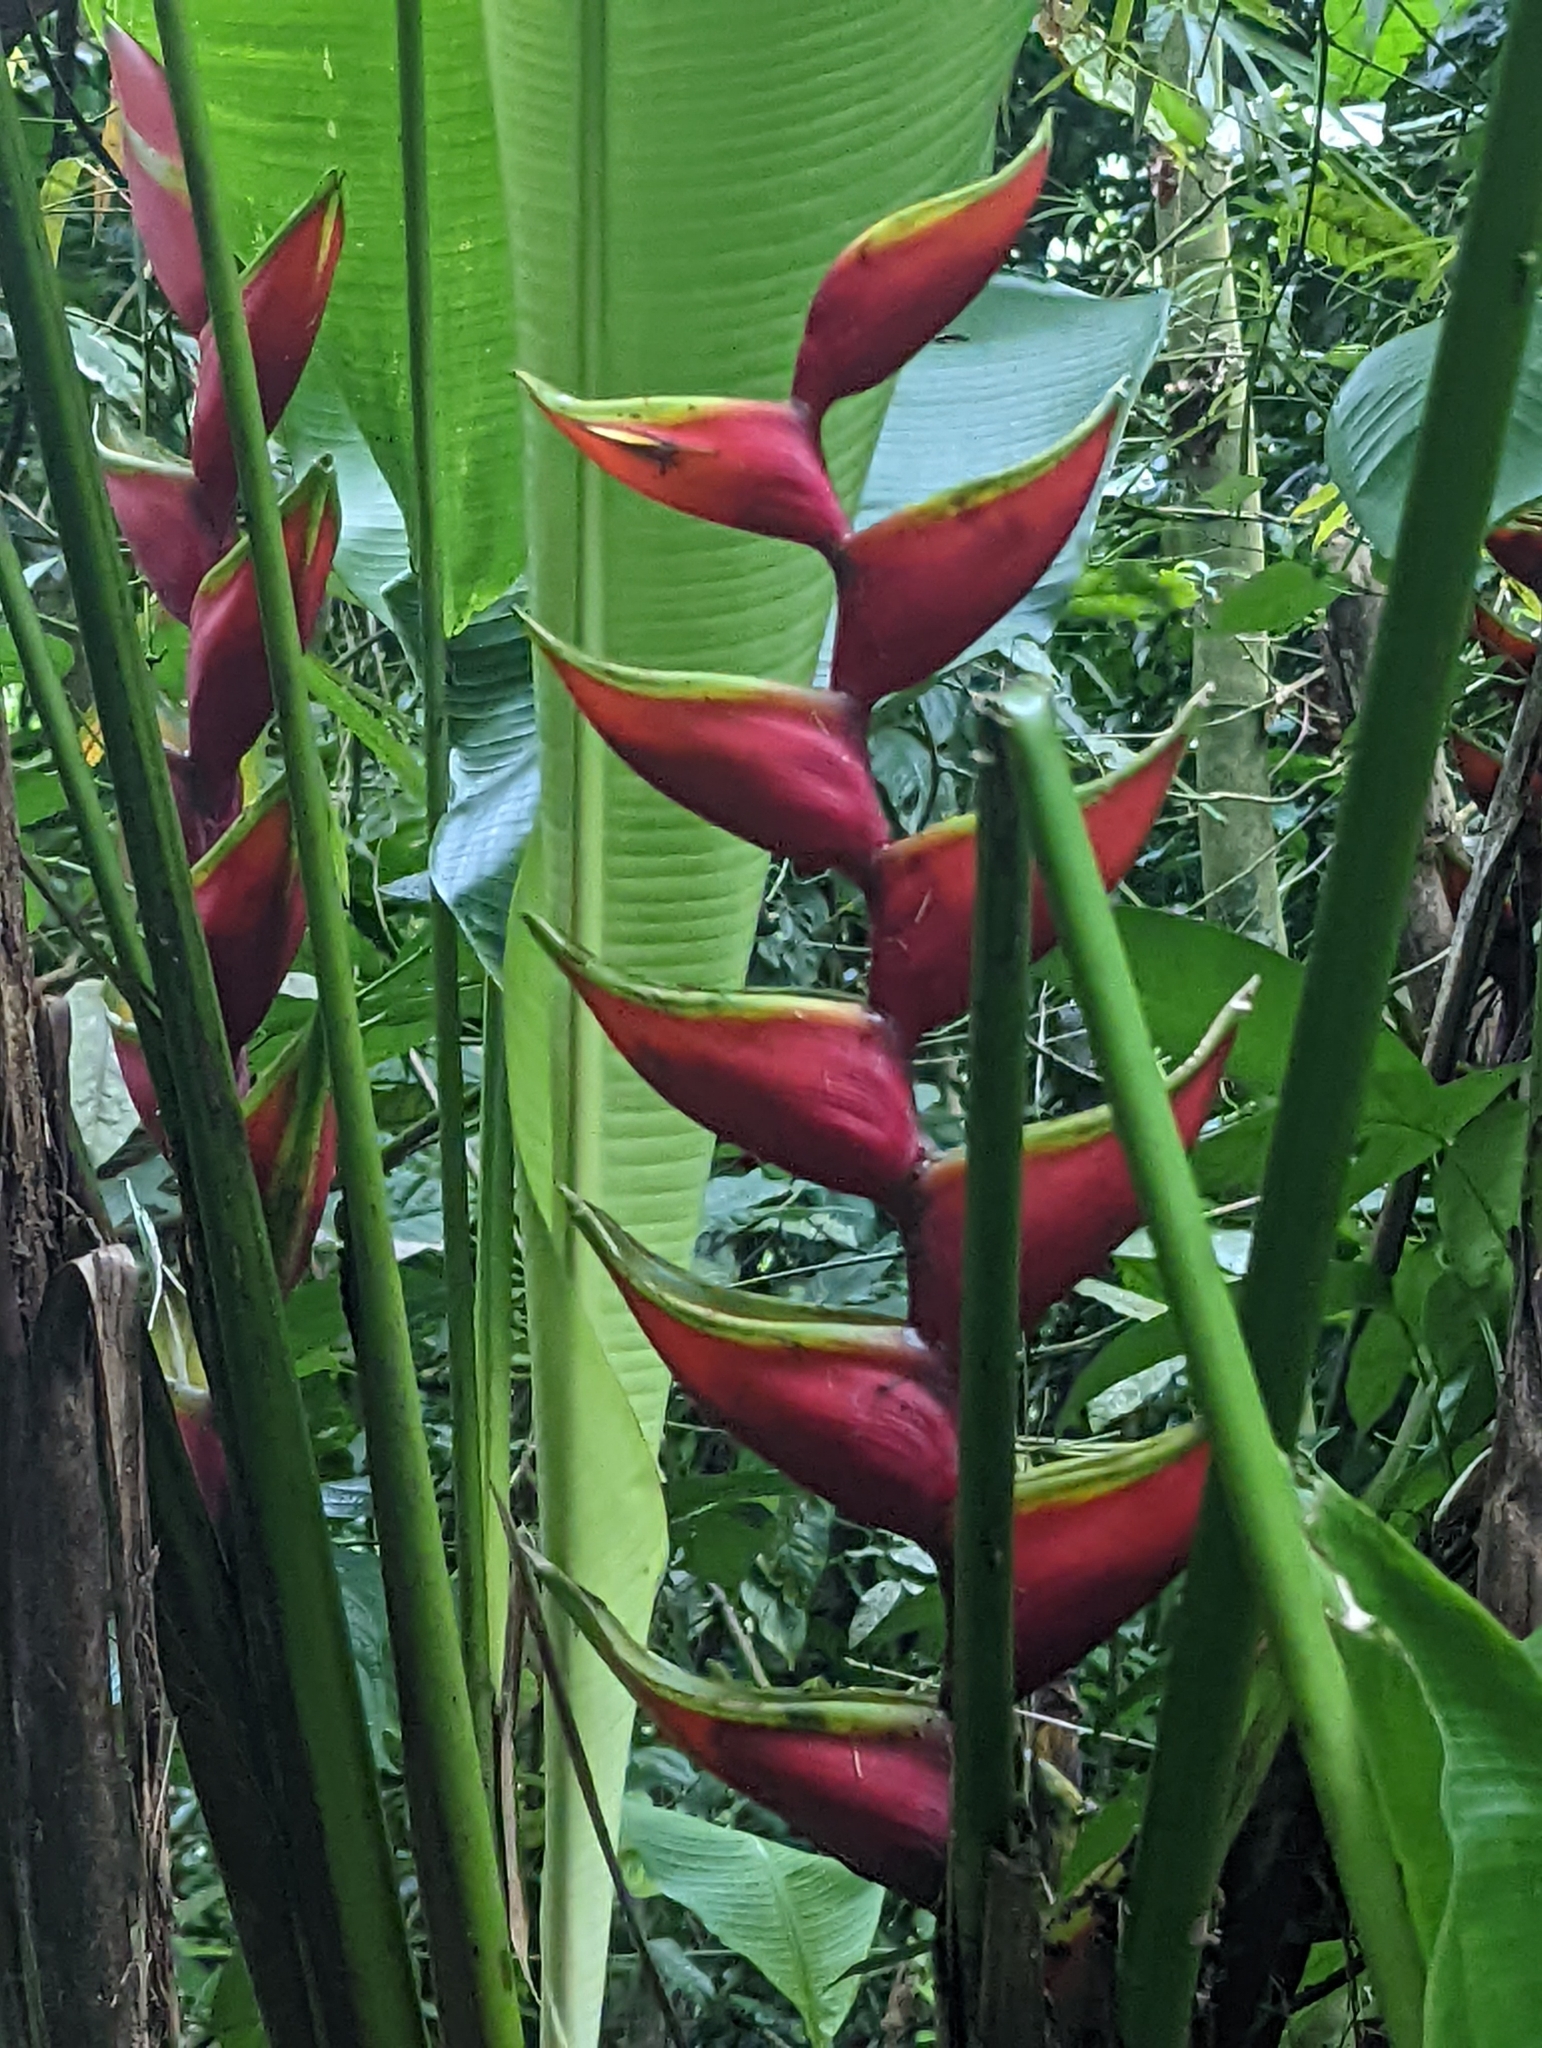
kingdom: Plantae
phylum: Tracheophyta
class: Liliopsida
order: Zingiberales
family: Heliconiaceae
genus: Heliconia
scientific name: Heliconia bihai
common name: Macaw flower
